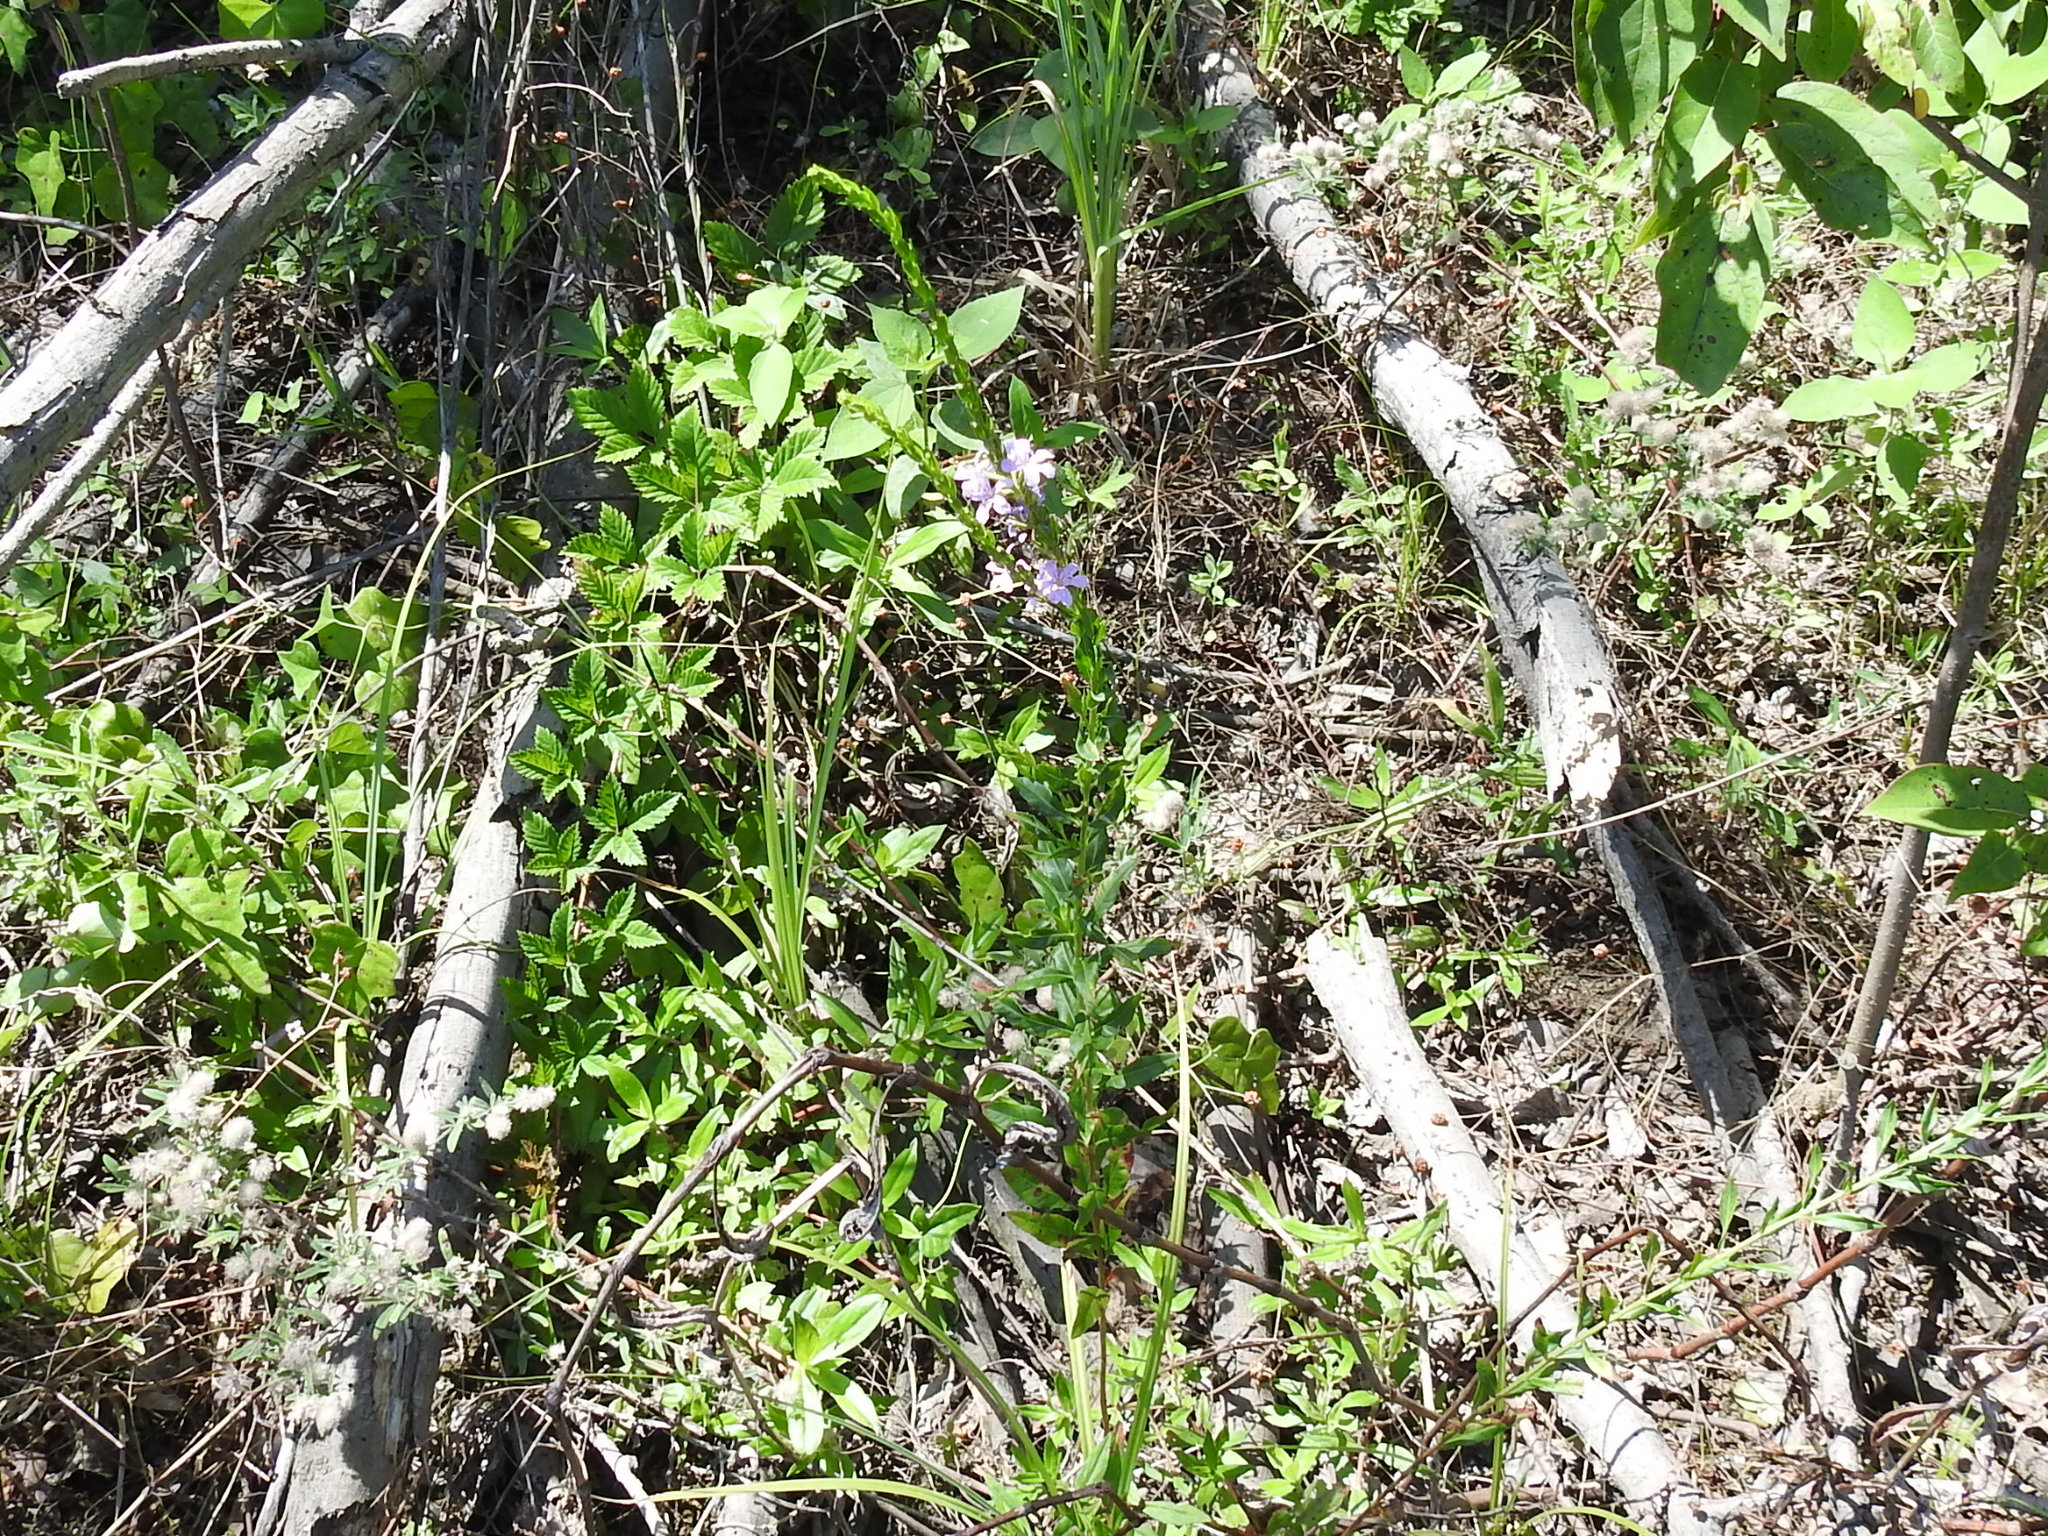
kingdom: Plantae
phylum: Tracheophyta
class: Magnoliopsida
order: Myrtales
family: Lythraceae
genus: Lythrum
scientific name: Lythrum alatum
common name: Winged loosestrife
